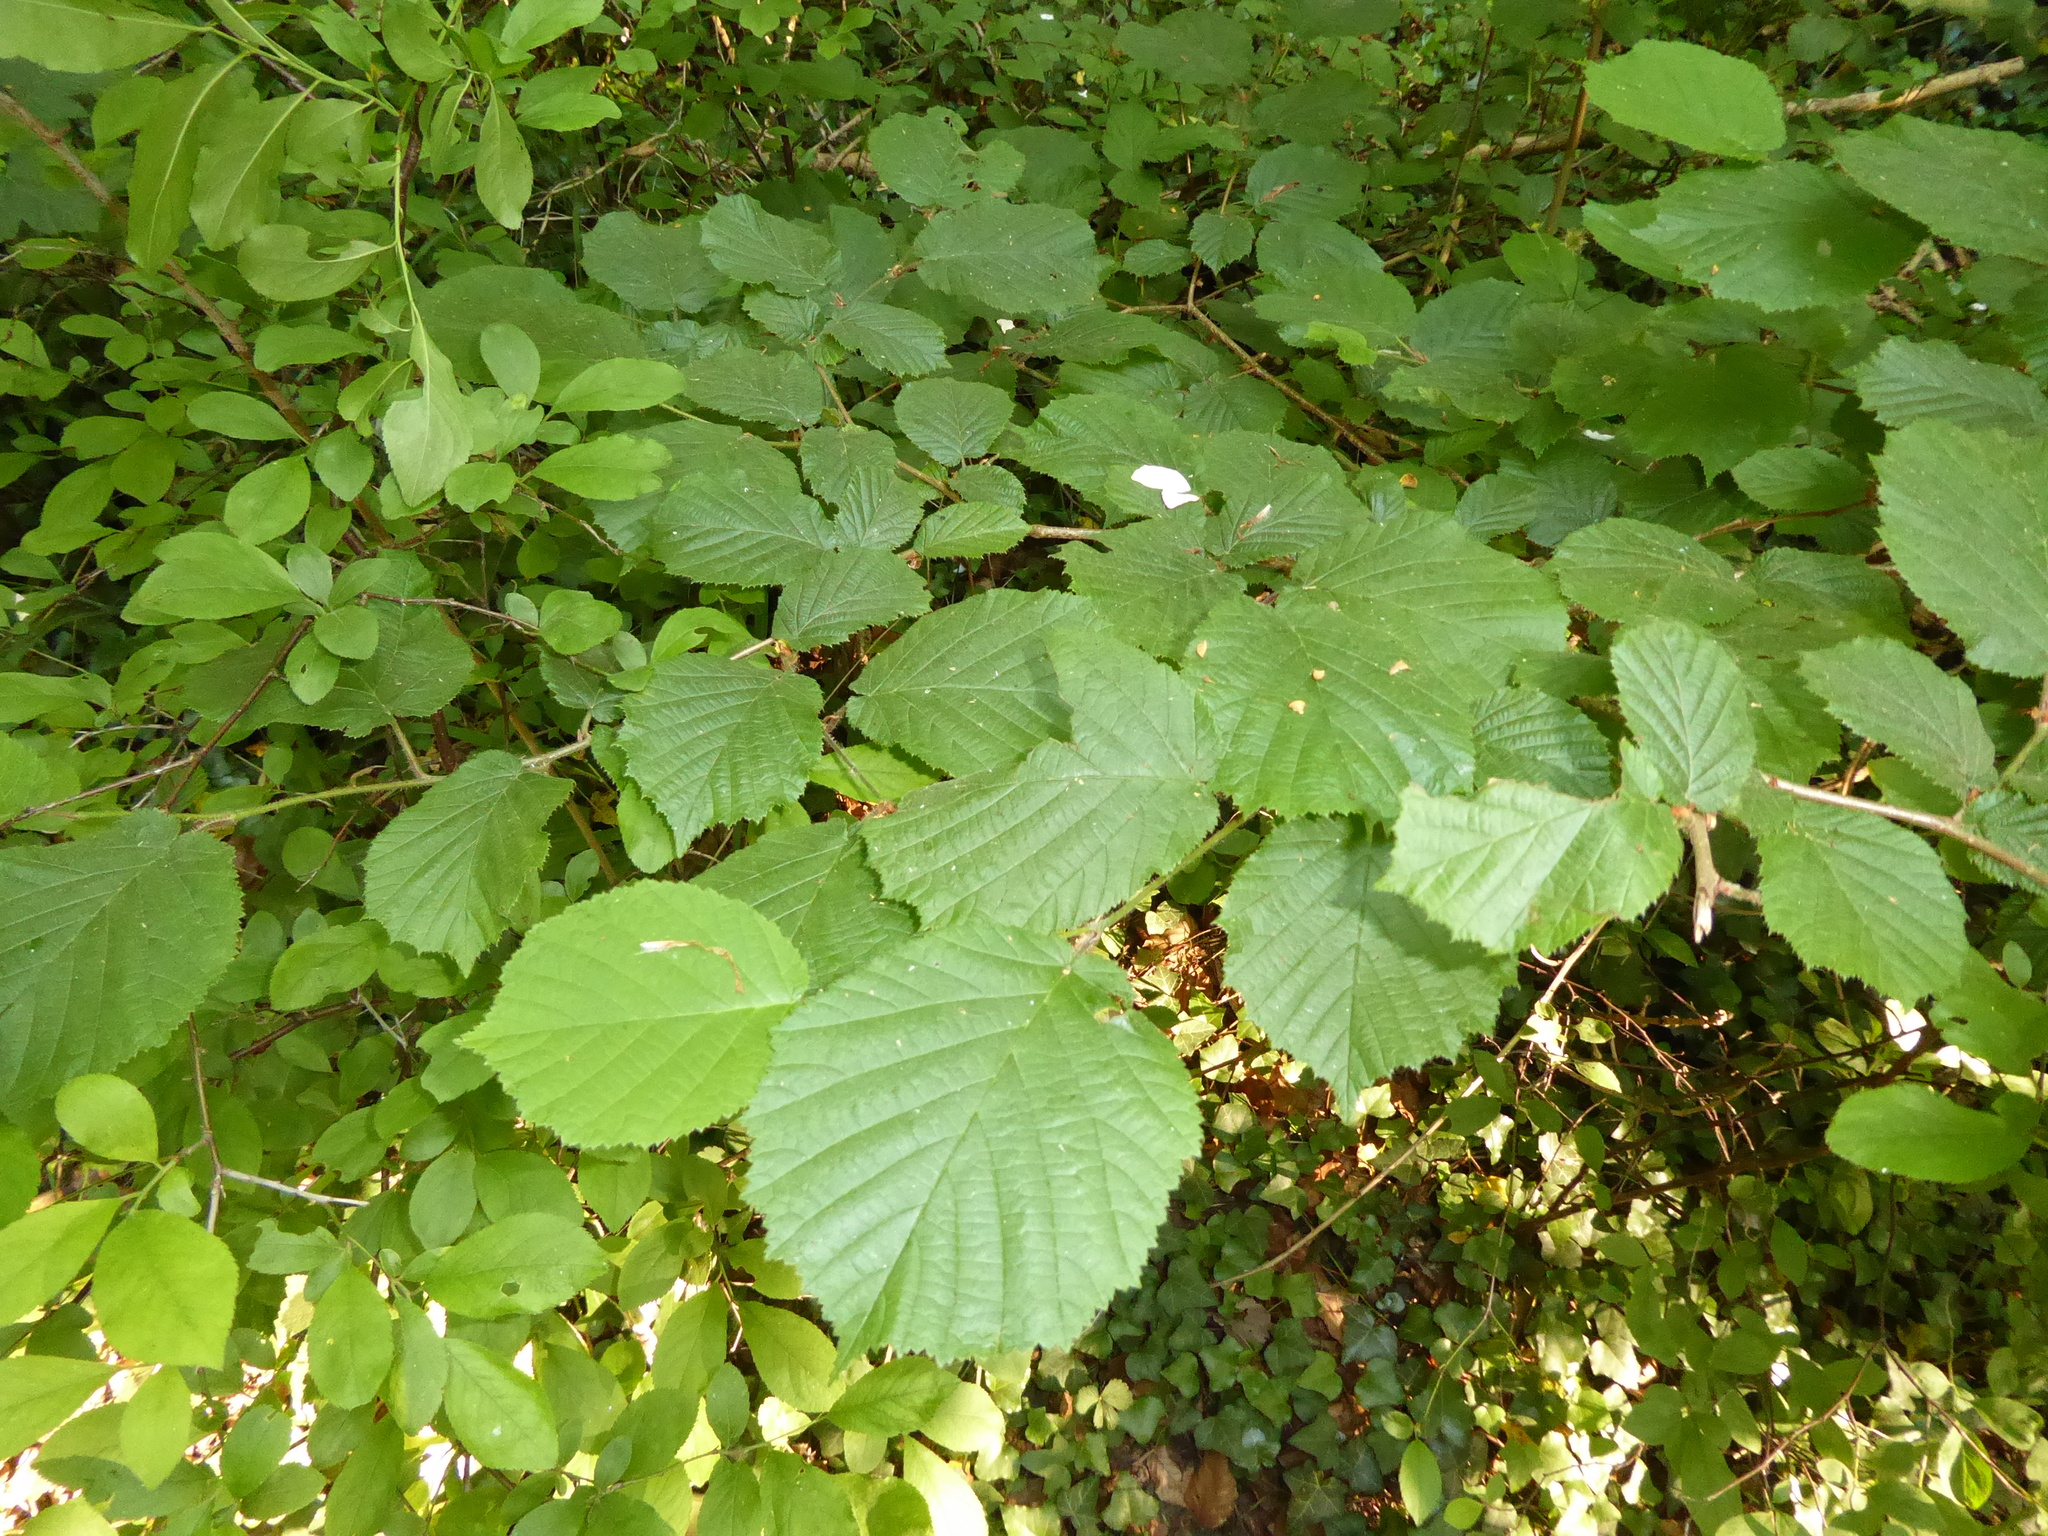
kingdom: Plantae
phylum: Tracheophyta
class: Magnoliopsida
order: Fagales
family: Betulaceae
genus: Corylus
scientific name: Corylus avellana
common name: European hazel
